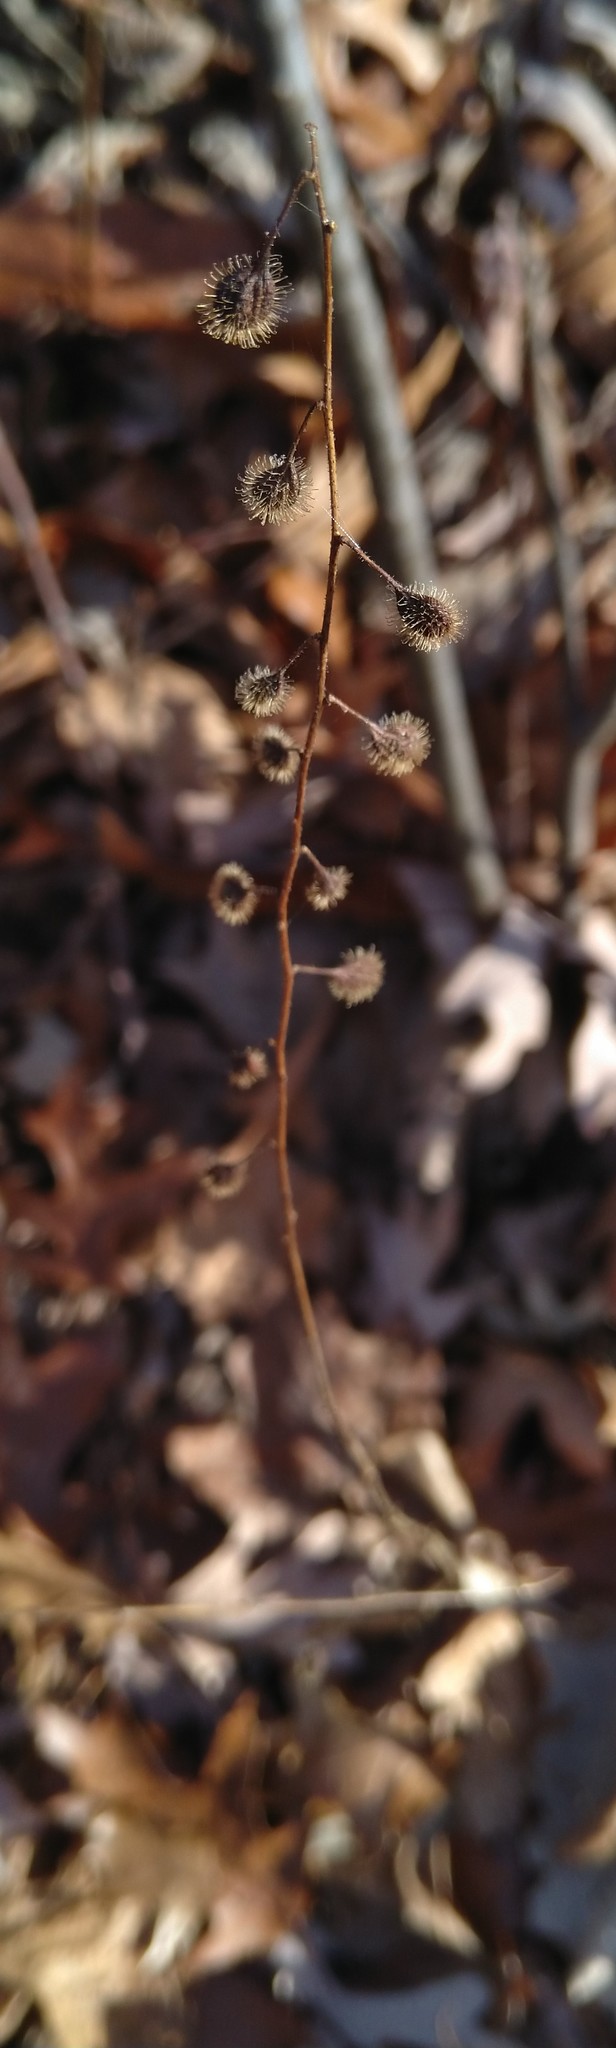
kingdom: Plantae
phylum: Tracheophyta
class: Magnoliopsida
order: Myrtales
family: Onagraceae
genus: Circaea
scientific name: Circaea canadensis
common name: Broad-leaved enchanter's nightshade
